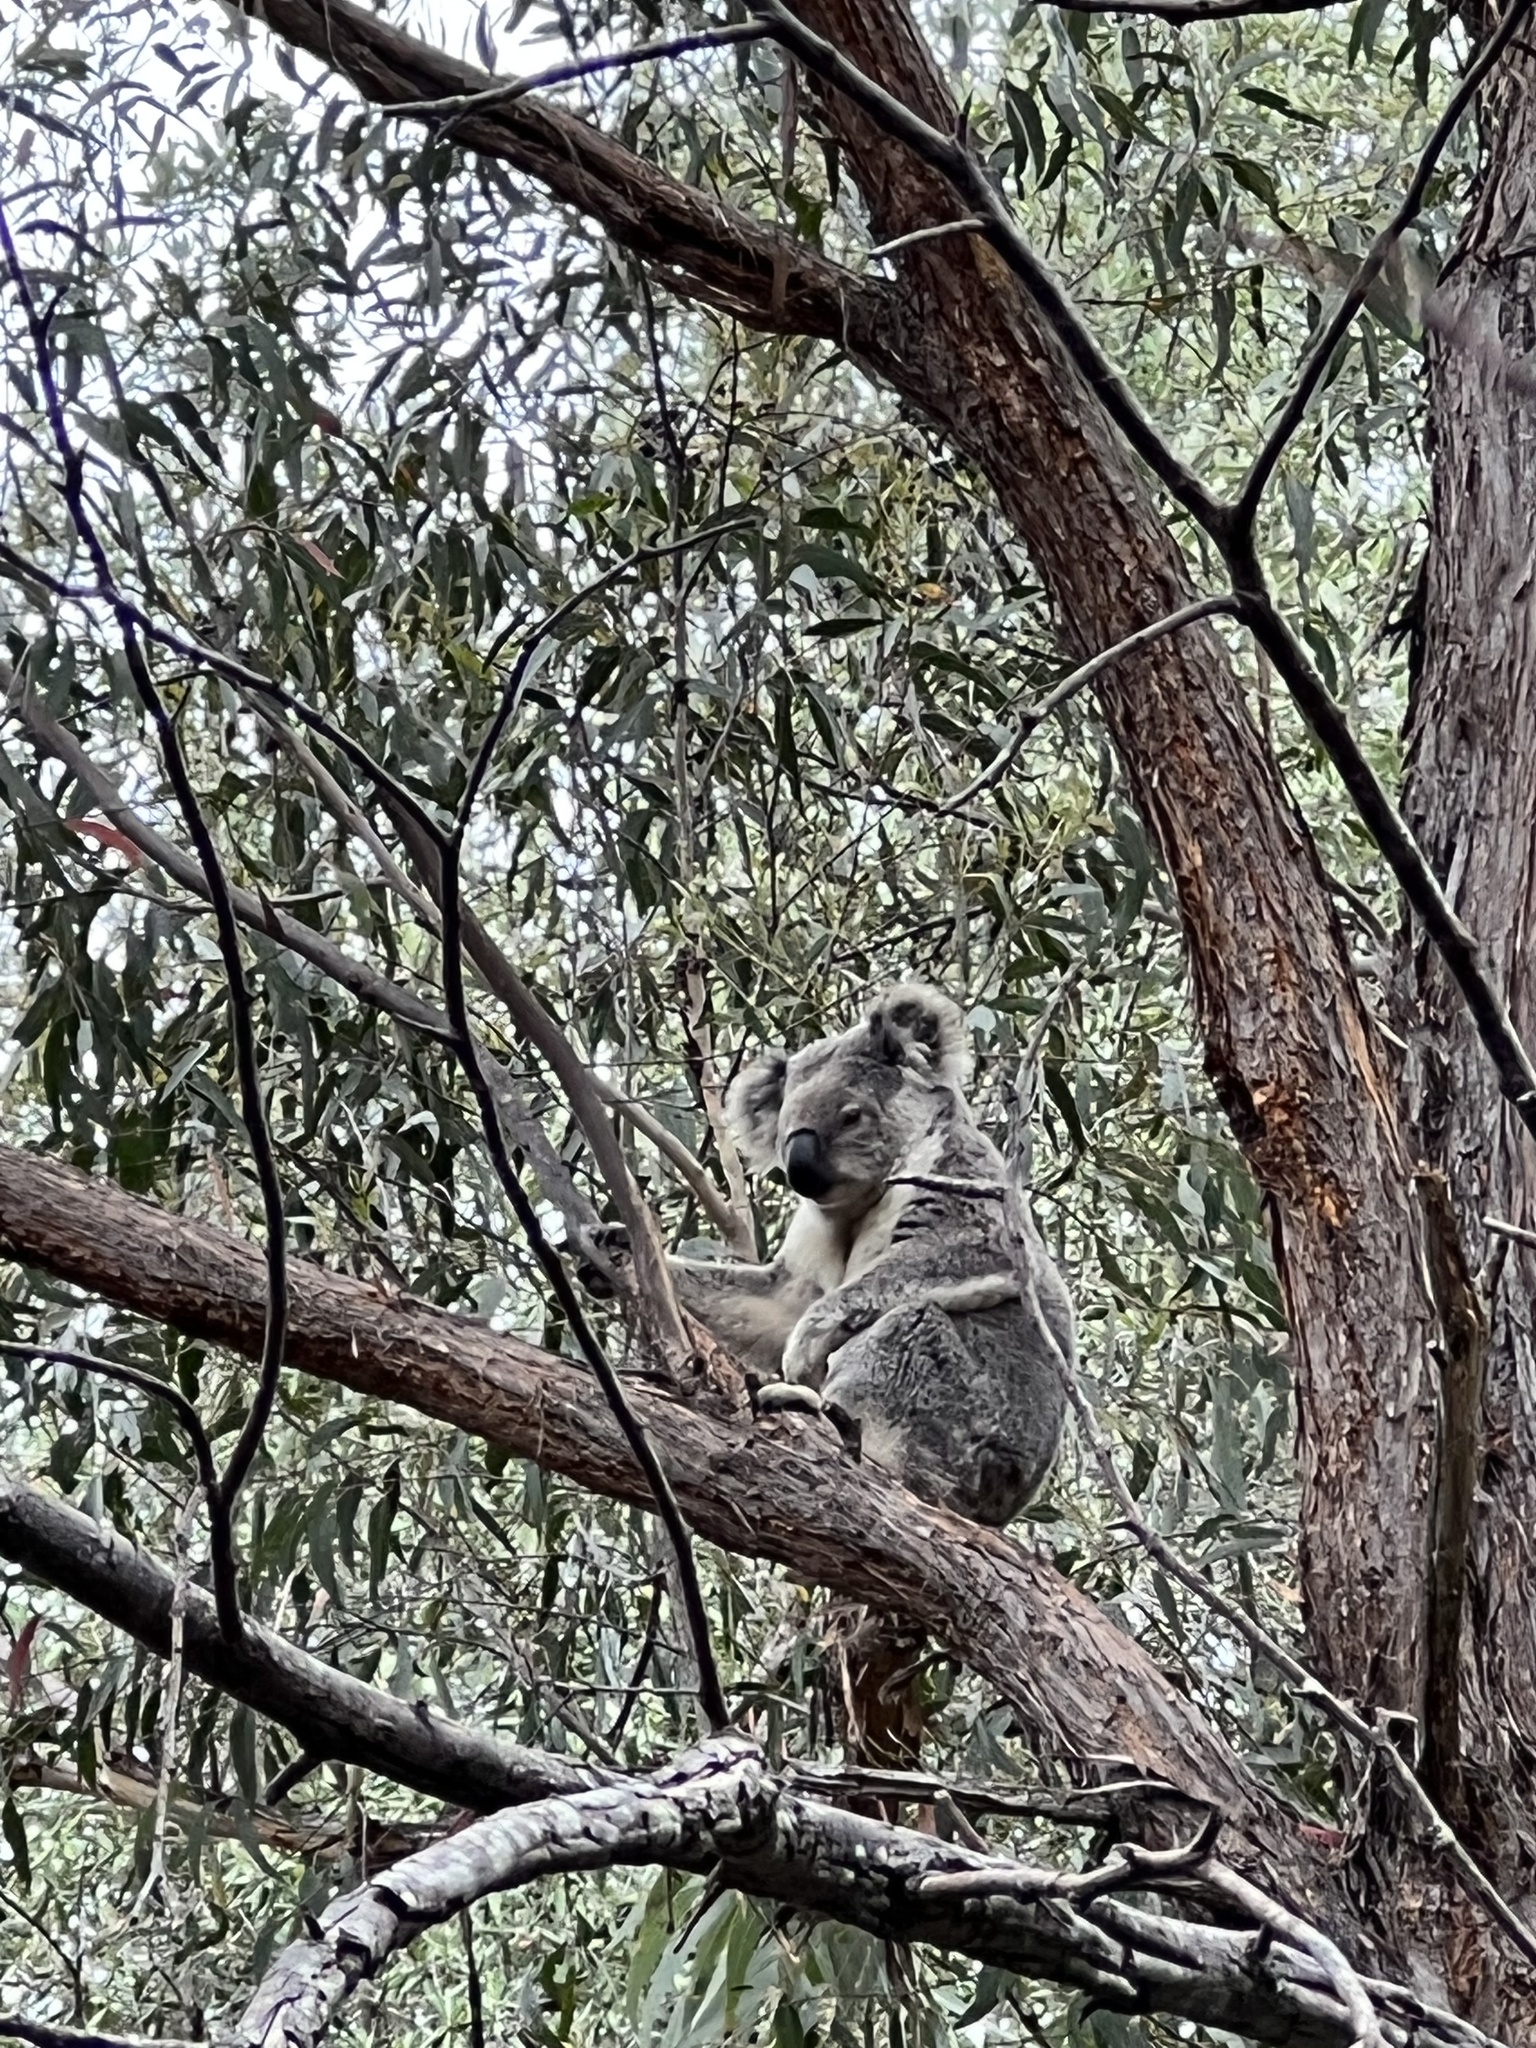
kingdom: Animalia
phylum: Chordata
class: Mammalia
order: Diprotodontia
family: Phascolarctidae
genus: Phascolarctos
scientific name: Phascolarctos cinereus
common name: Koala
